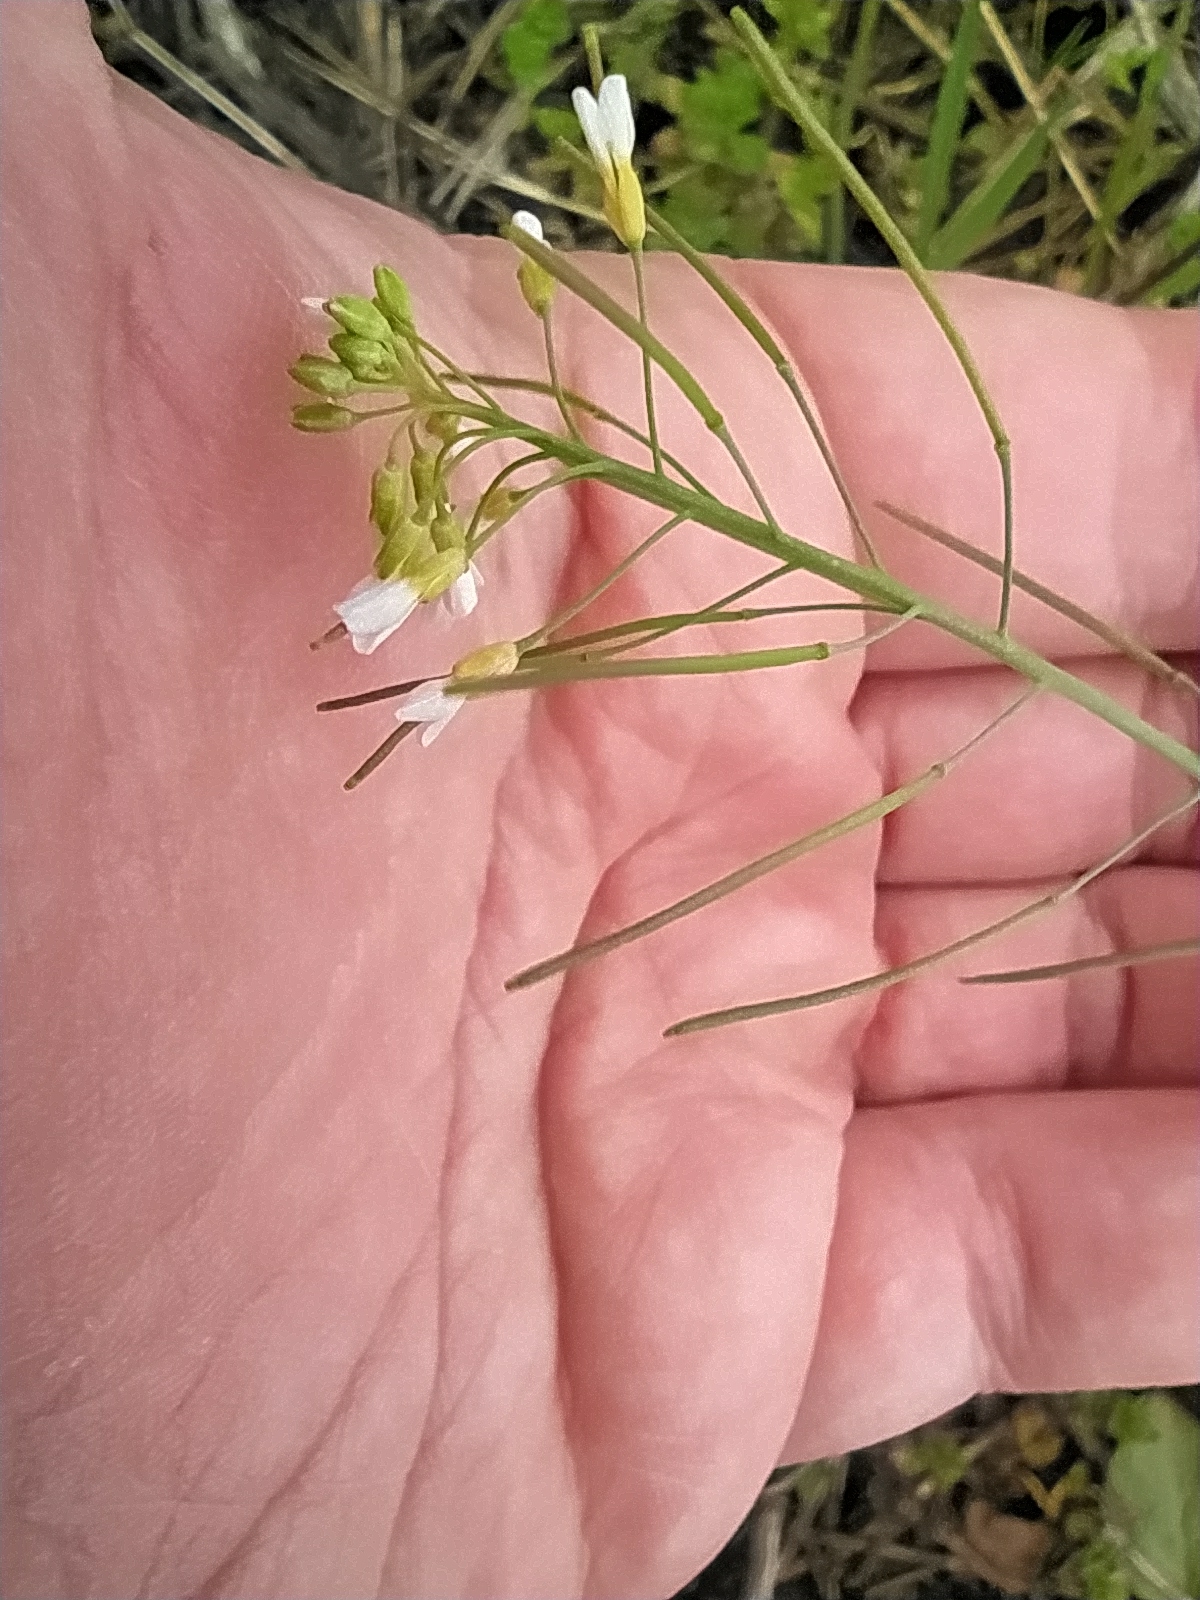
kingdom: Plantae
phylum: Tracheophyta
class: Magnoliopsida
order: Brassicales
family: Brassicaceae
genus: Arabidopsis
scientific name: Arabidopsis thaliana
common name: Thale cress
